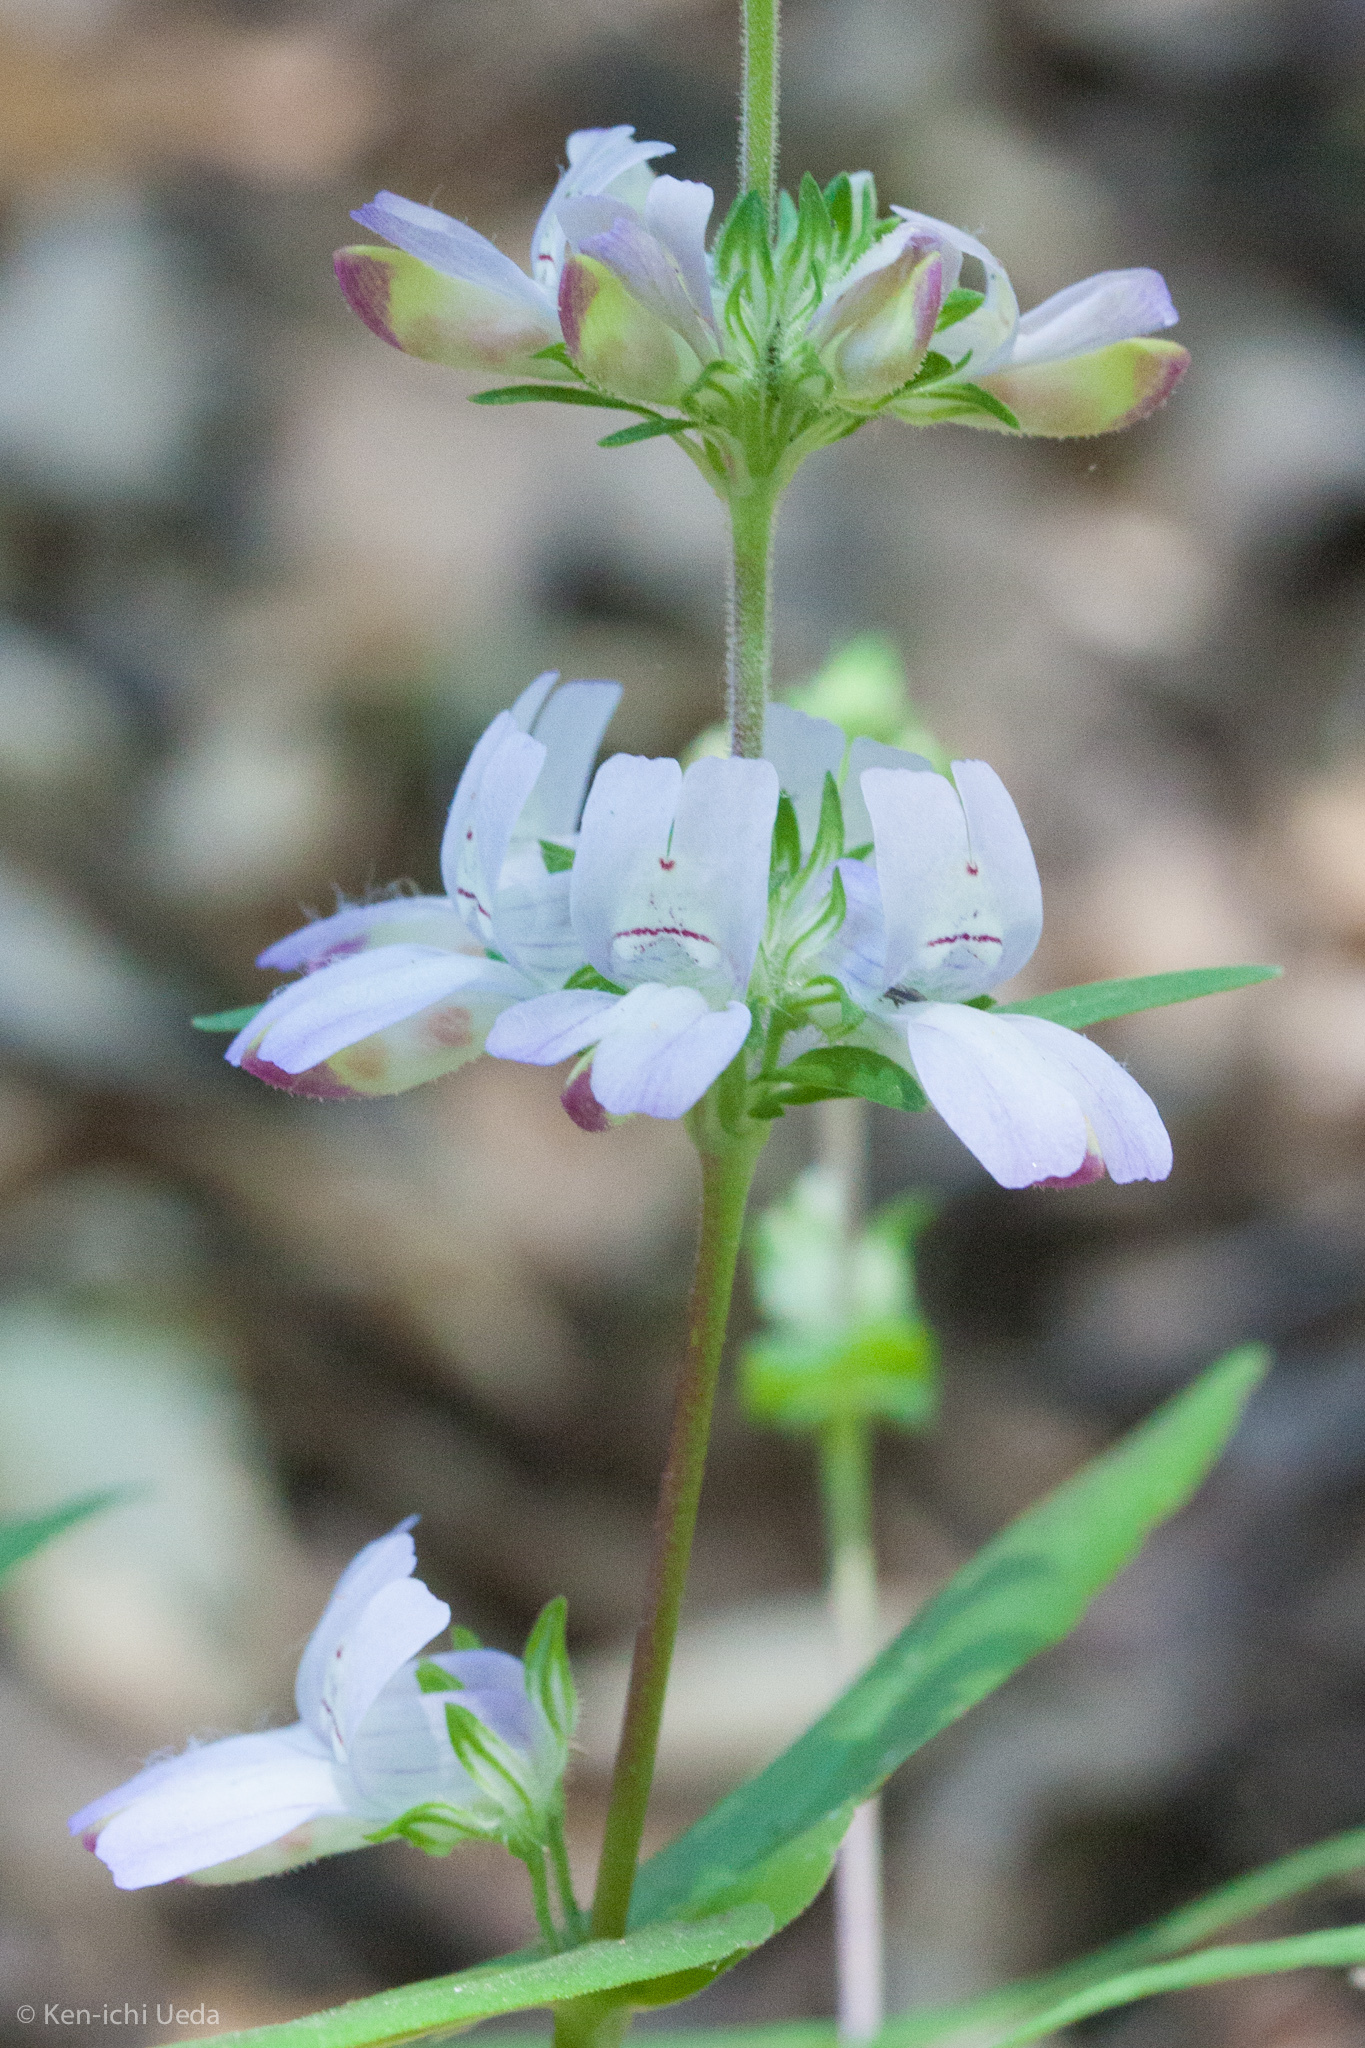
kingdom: Plantae
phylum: Tracheophyta
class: Magnoliopsida
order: Lamiales
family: Plantaginaceae
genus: Collinsia
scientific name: Collinsia heterophylla
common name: Chinese-houses
